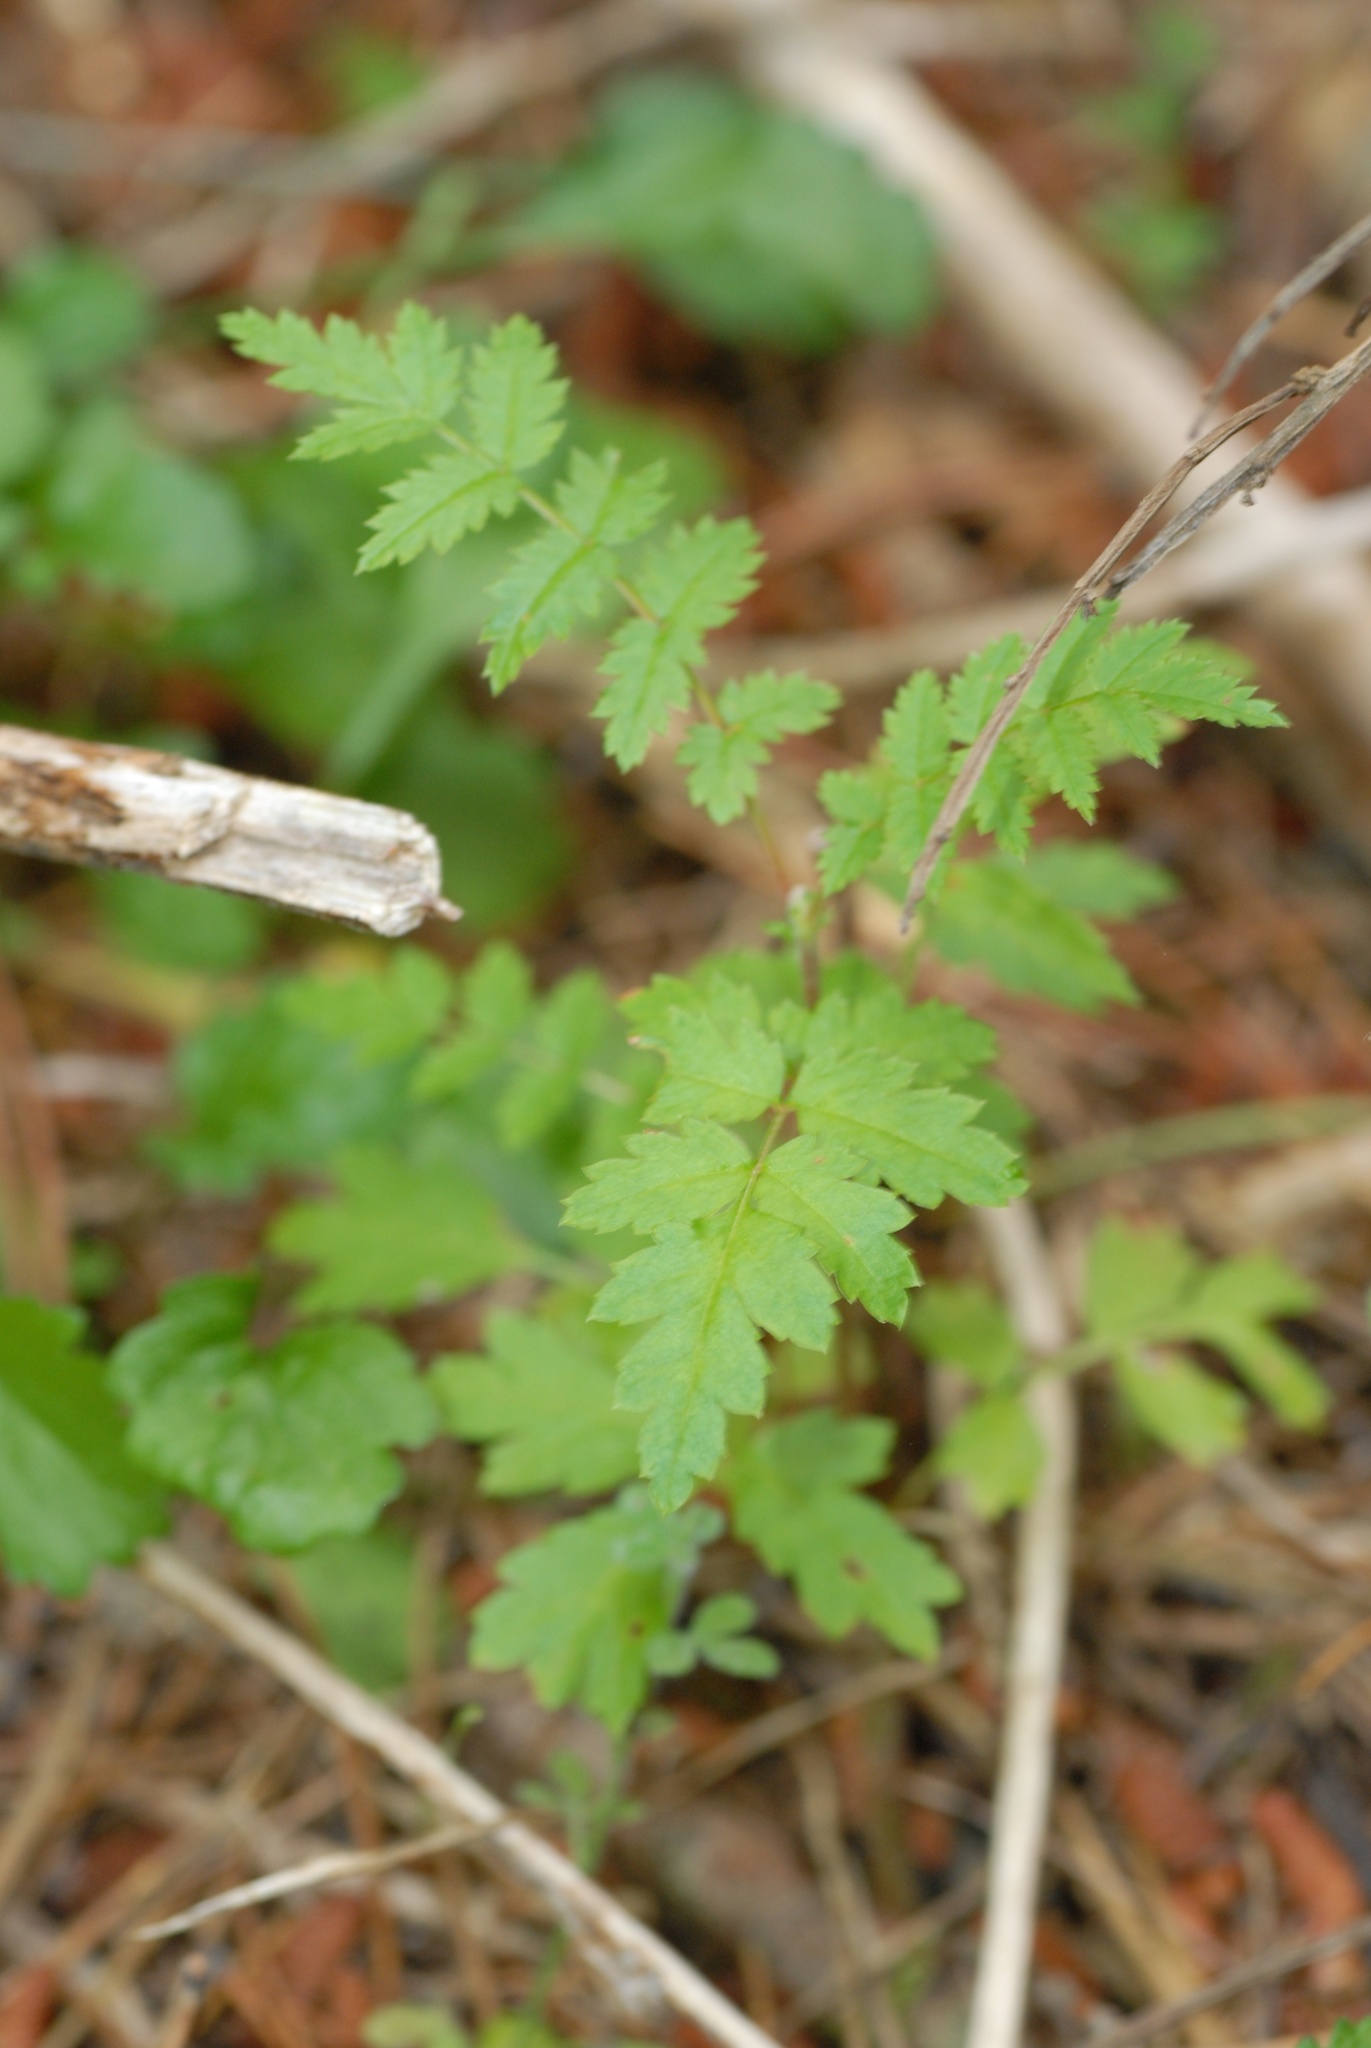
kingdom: Plantae
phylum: Tracheophyta
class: Magnoliopsida
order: Rosales
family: Rosaceae
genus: Sorbus
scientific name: Sorbus aucuparia
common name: Rowan
